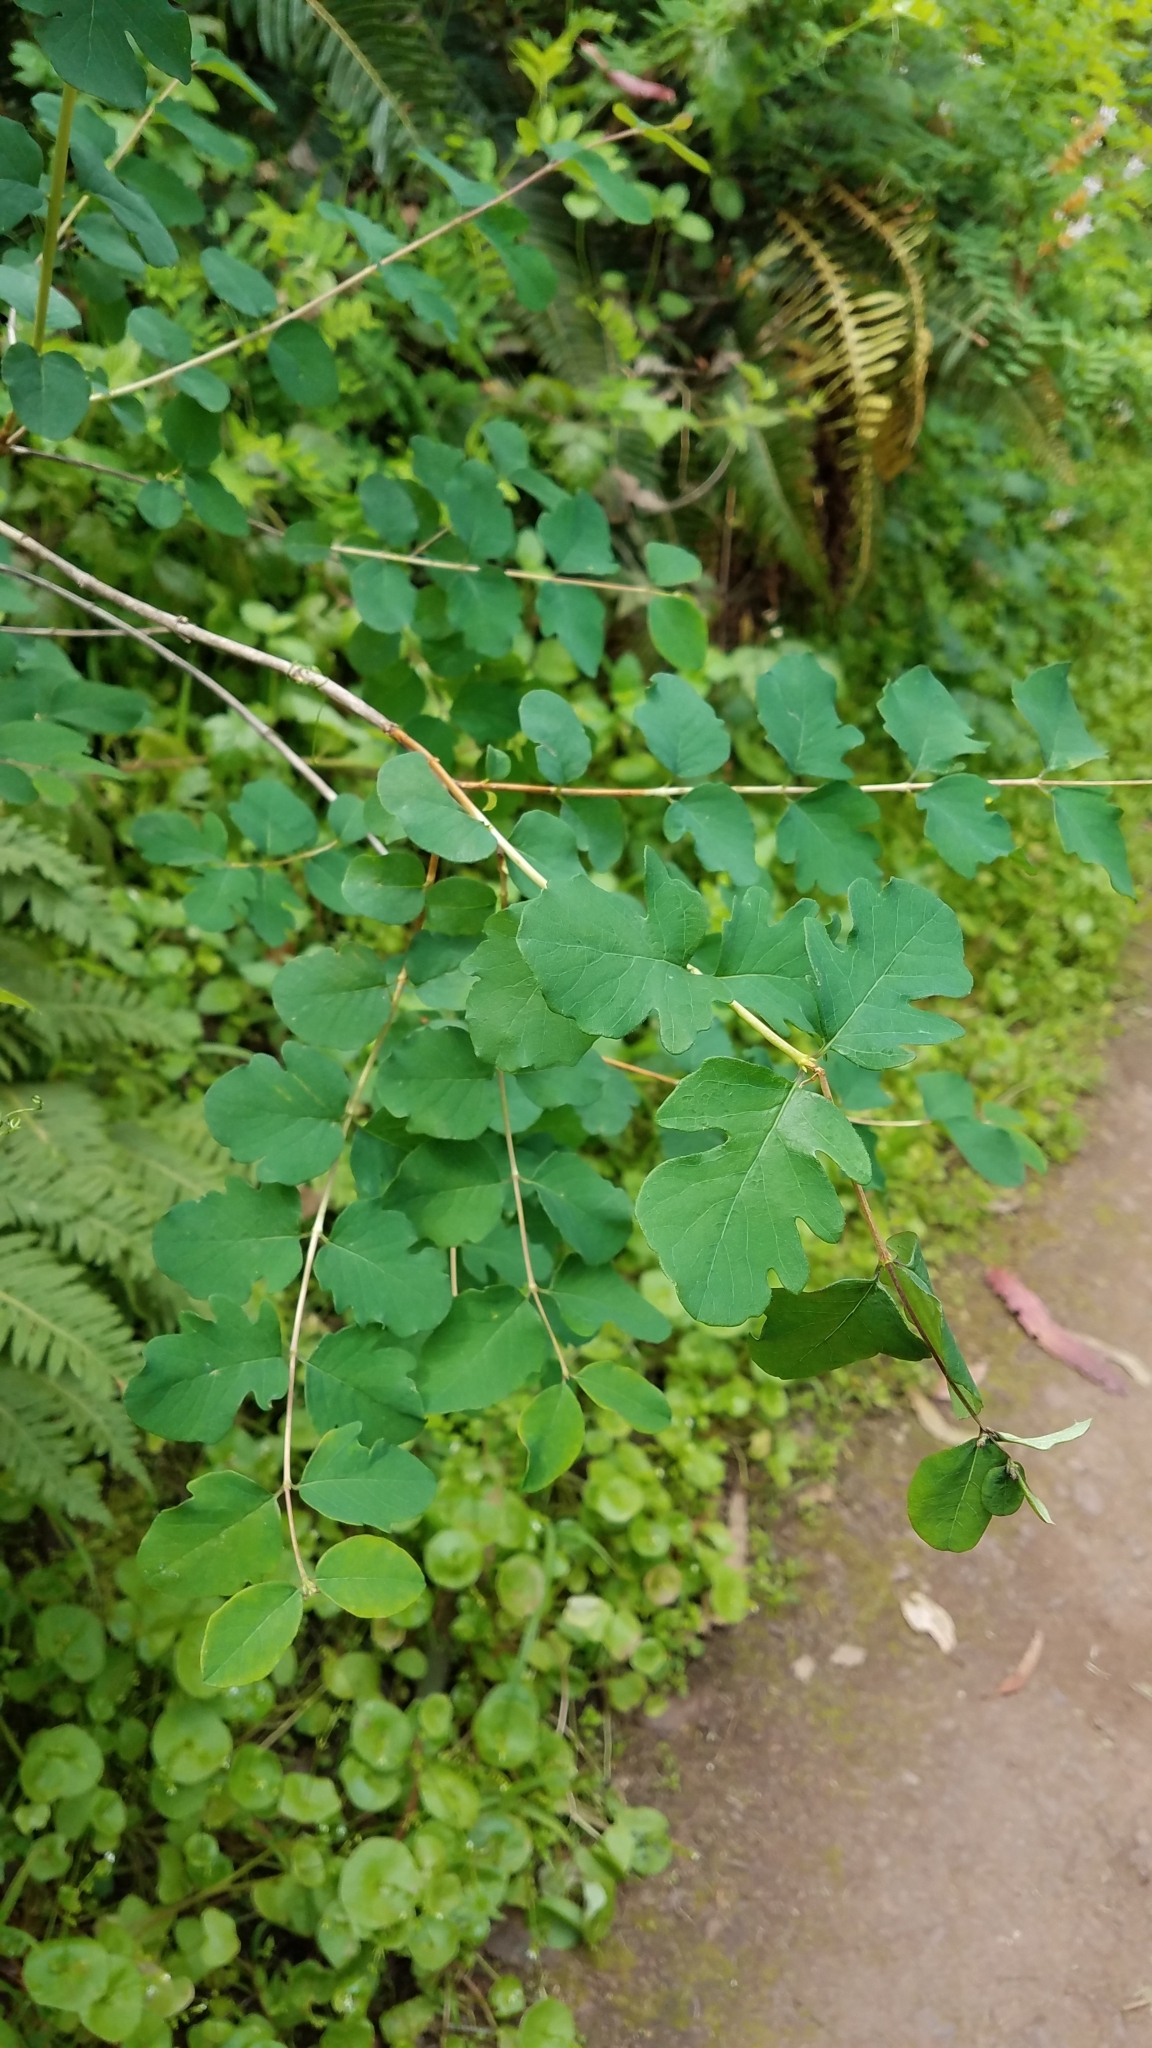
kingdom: Plantae
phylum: Tracheophyta
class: Magnoliopsida
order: Dipsacales
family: Caprifoliaceae
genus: Symphoricarpos
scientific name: Symphoricarpos albus
